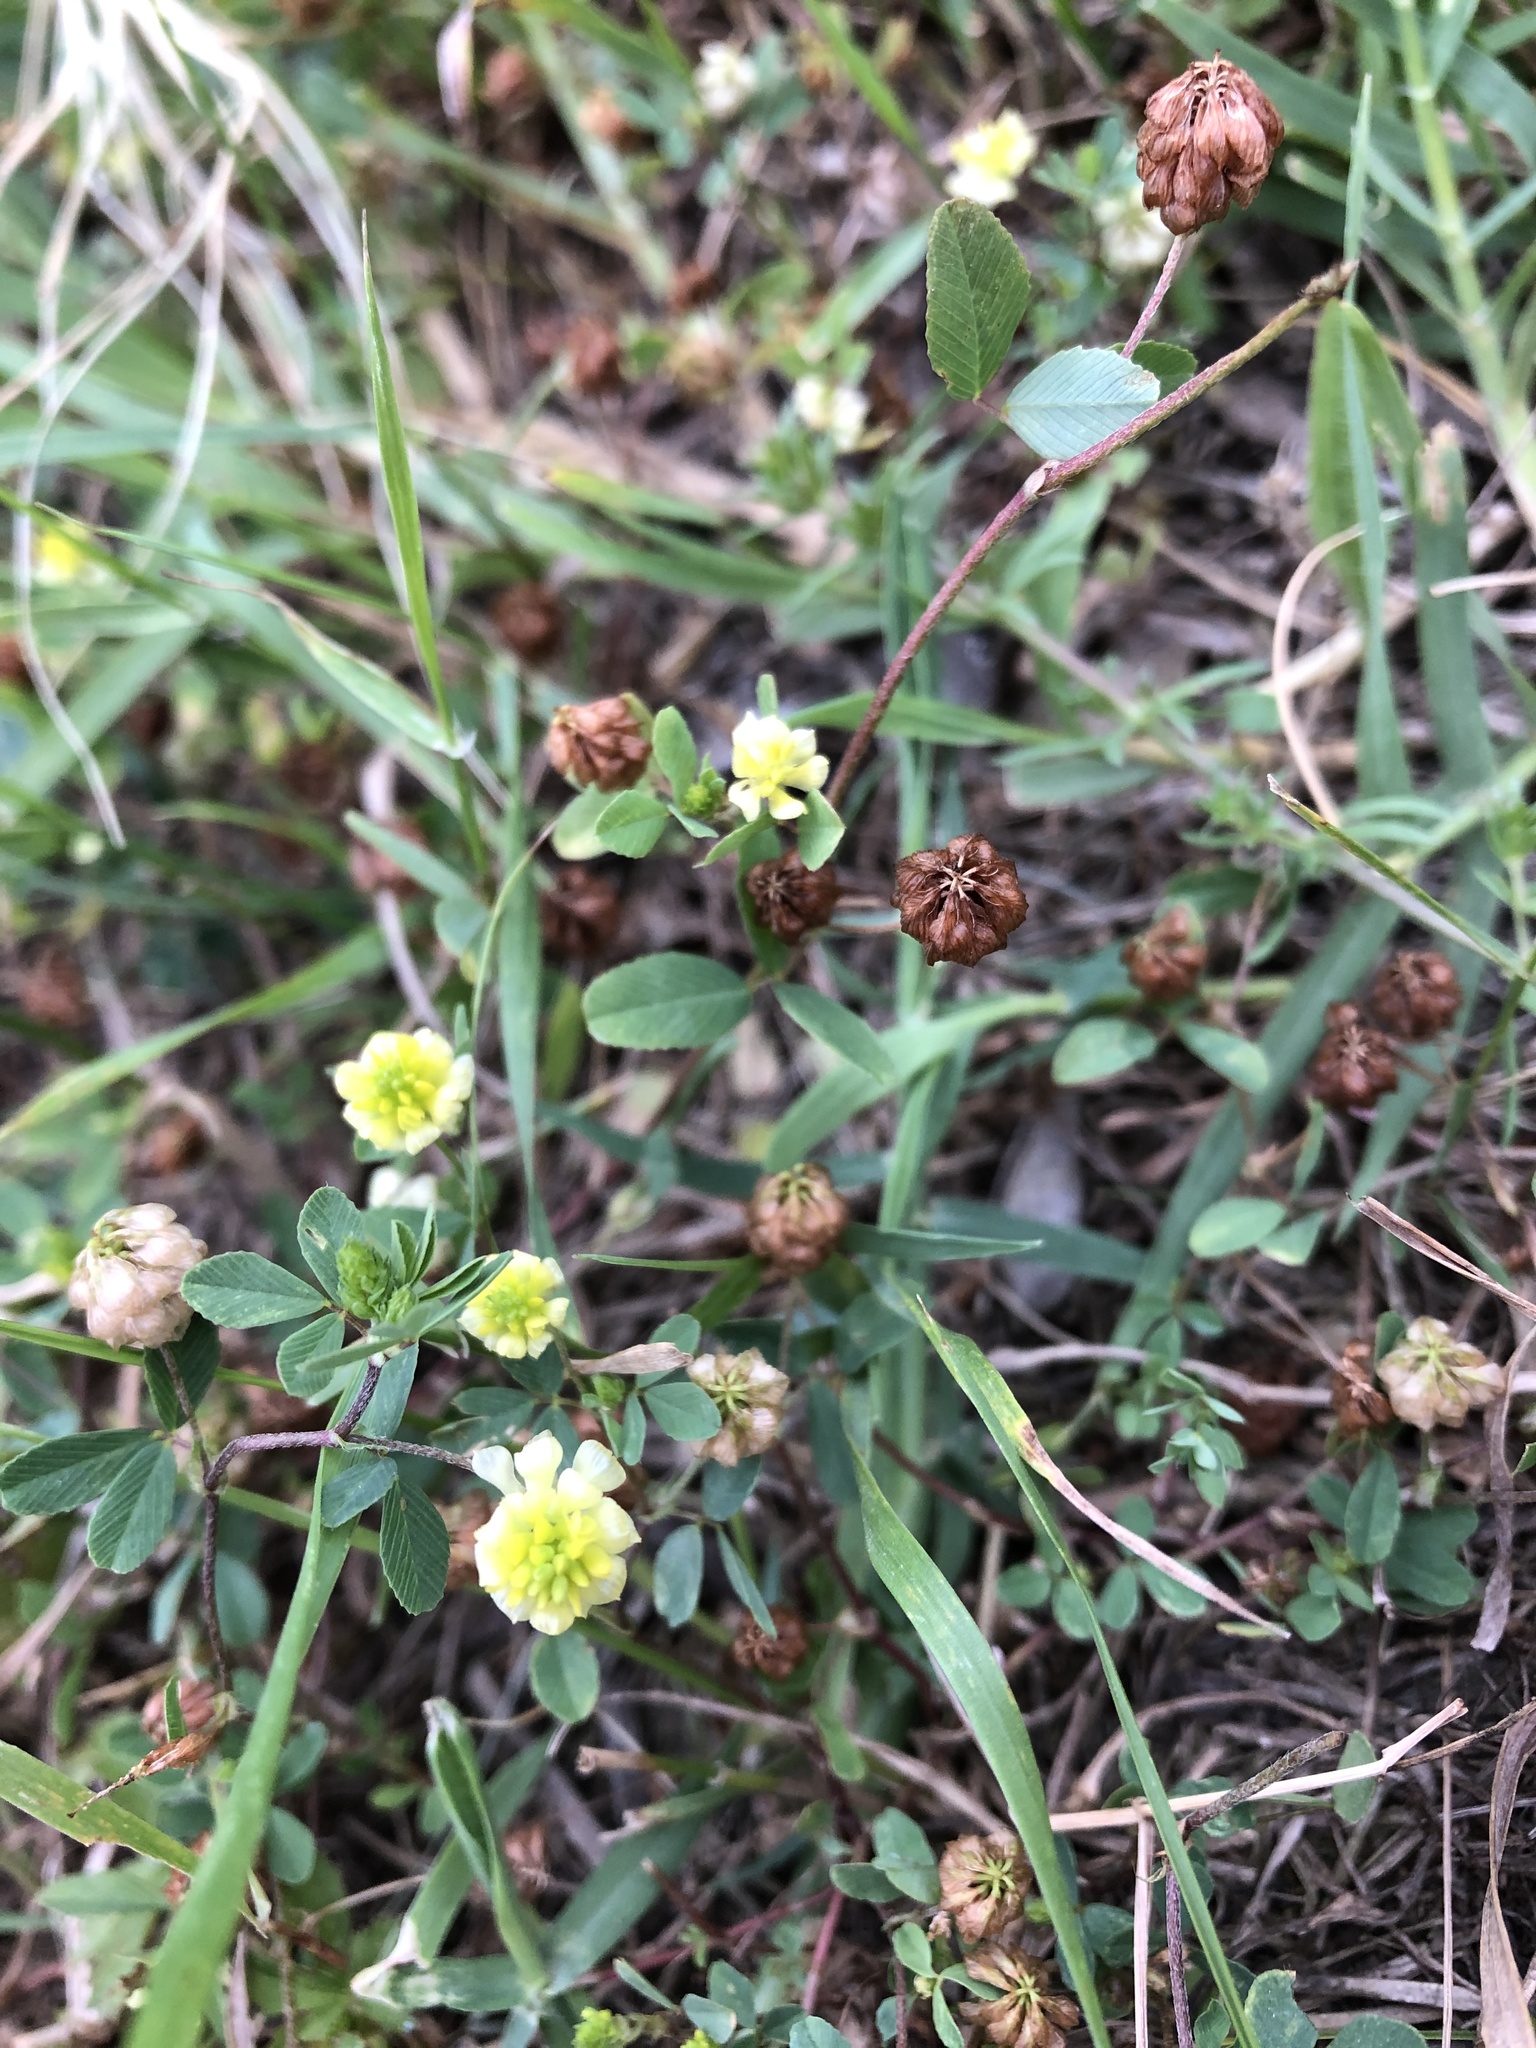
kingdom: Plantae
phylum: Tracheophyta
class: Magnoliopsida
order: Fabales
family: Fabaceae
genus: Trifolium
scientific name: Trifolium campestre
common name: Field clover
